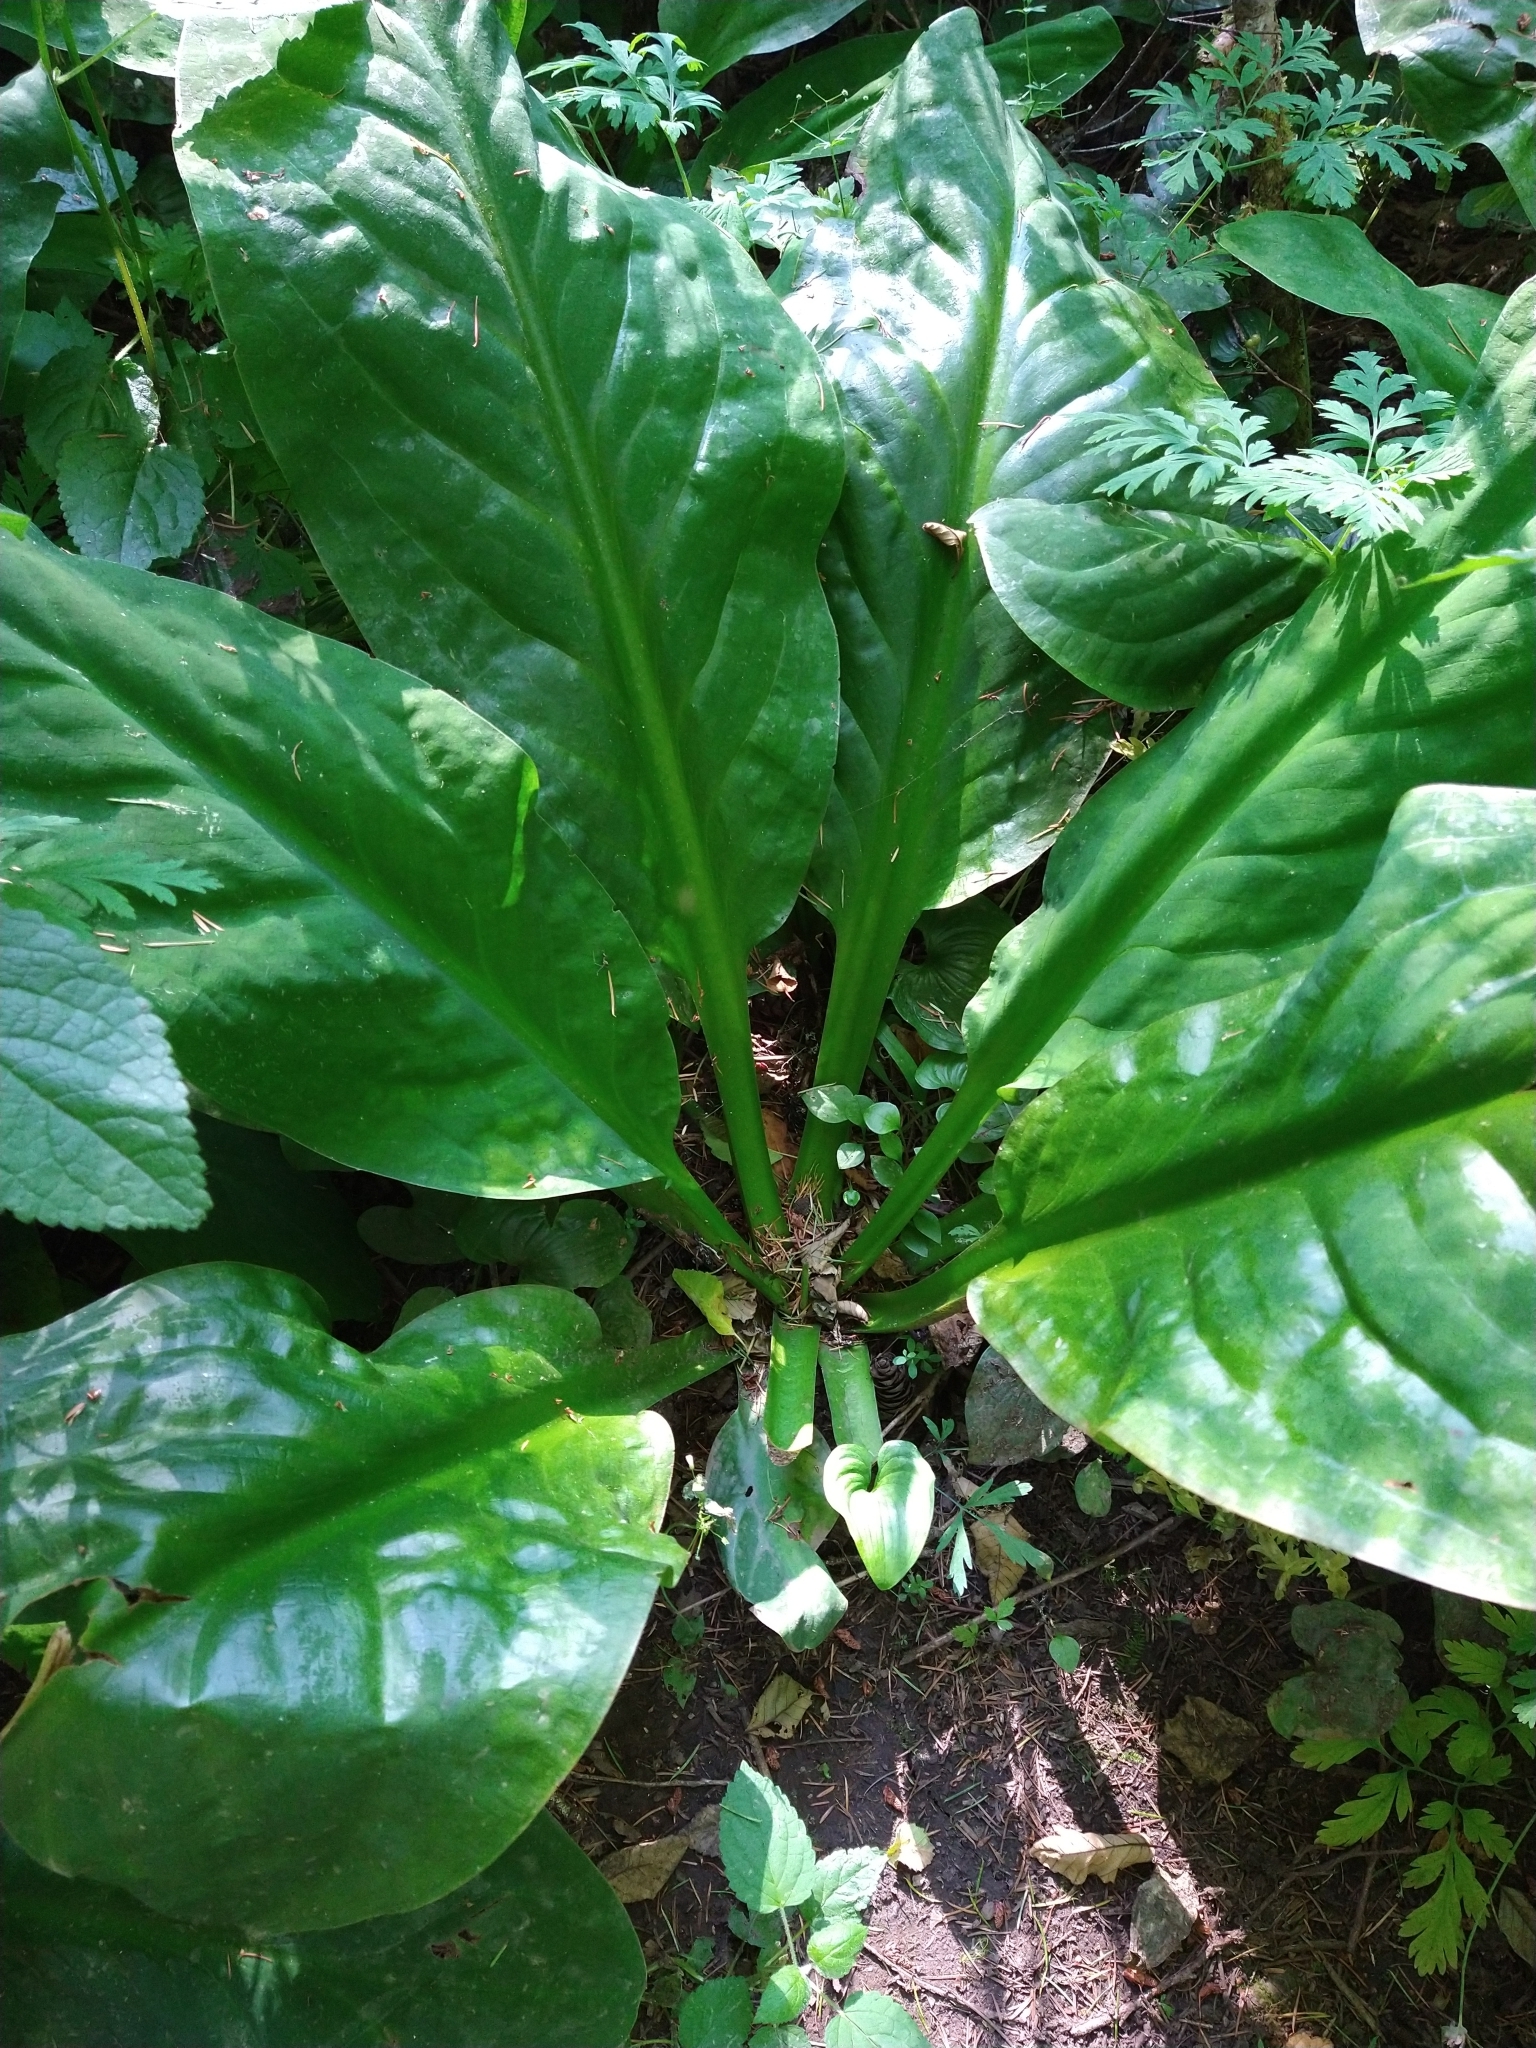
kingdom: Plantae
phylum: Tracheophyta
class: Liliopsida
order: Alismatales
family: Araceae
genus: Lysichiton
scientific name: Lysichiton americanus
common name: American skunk cabbage
